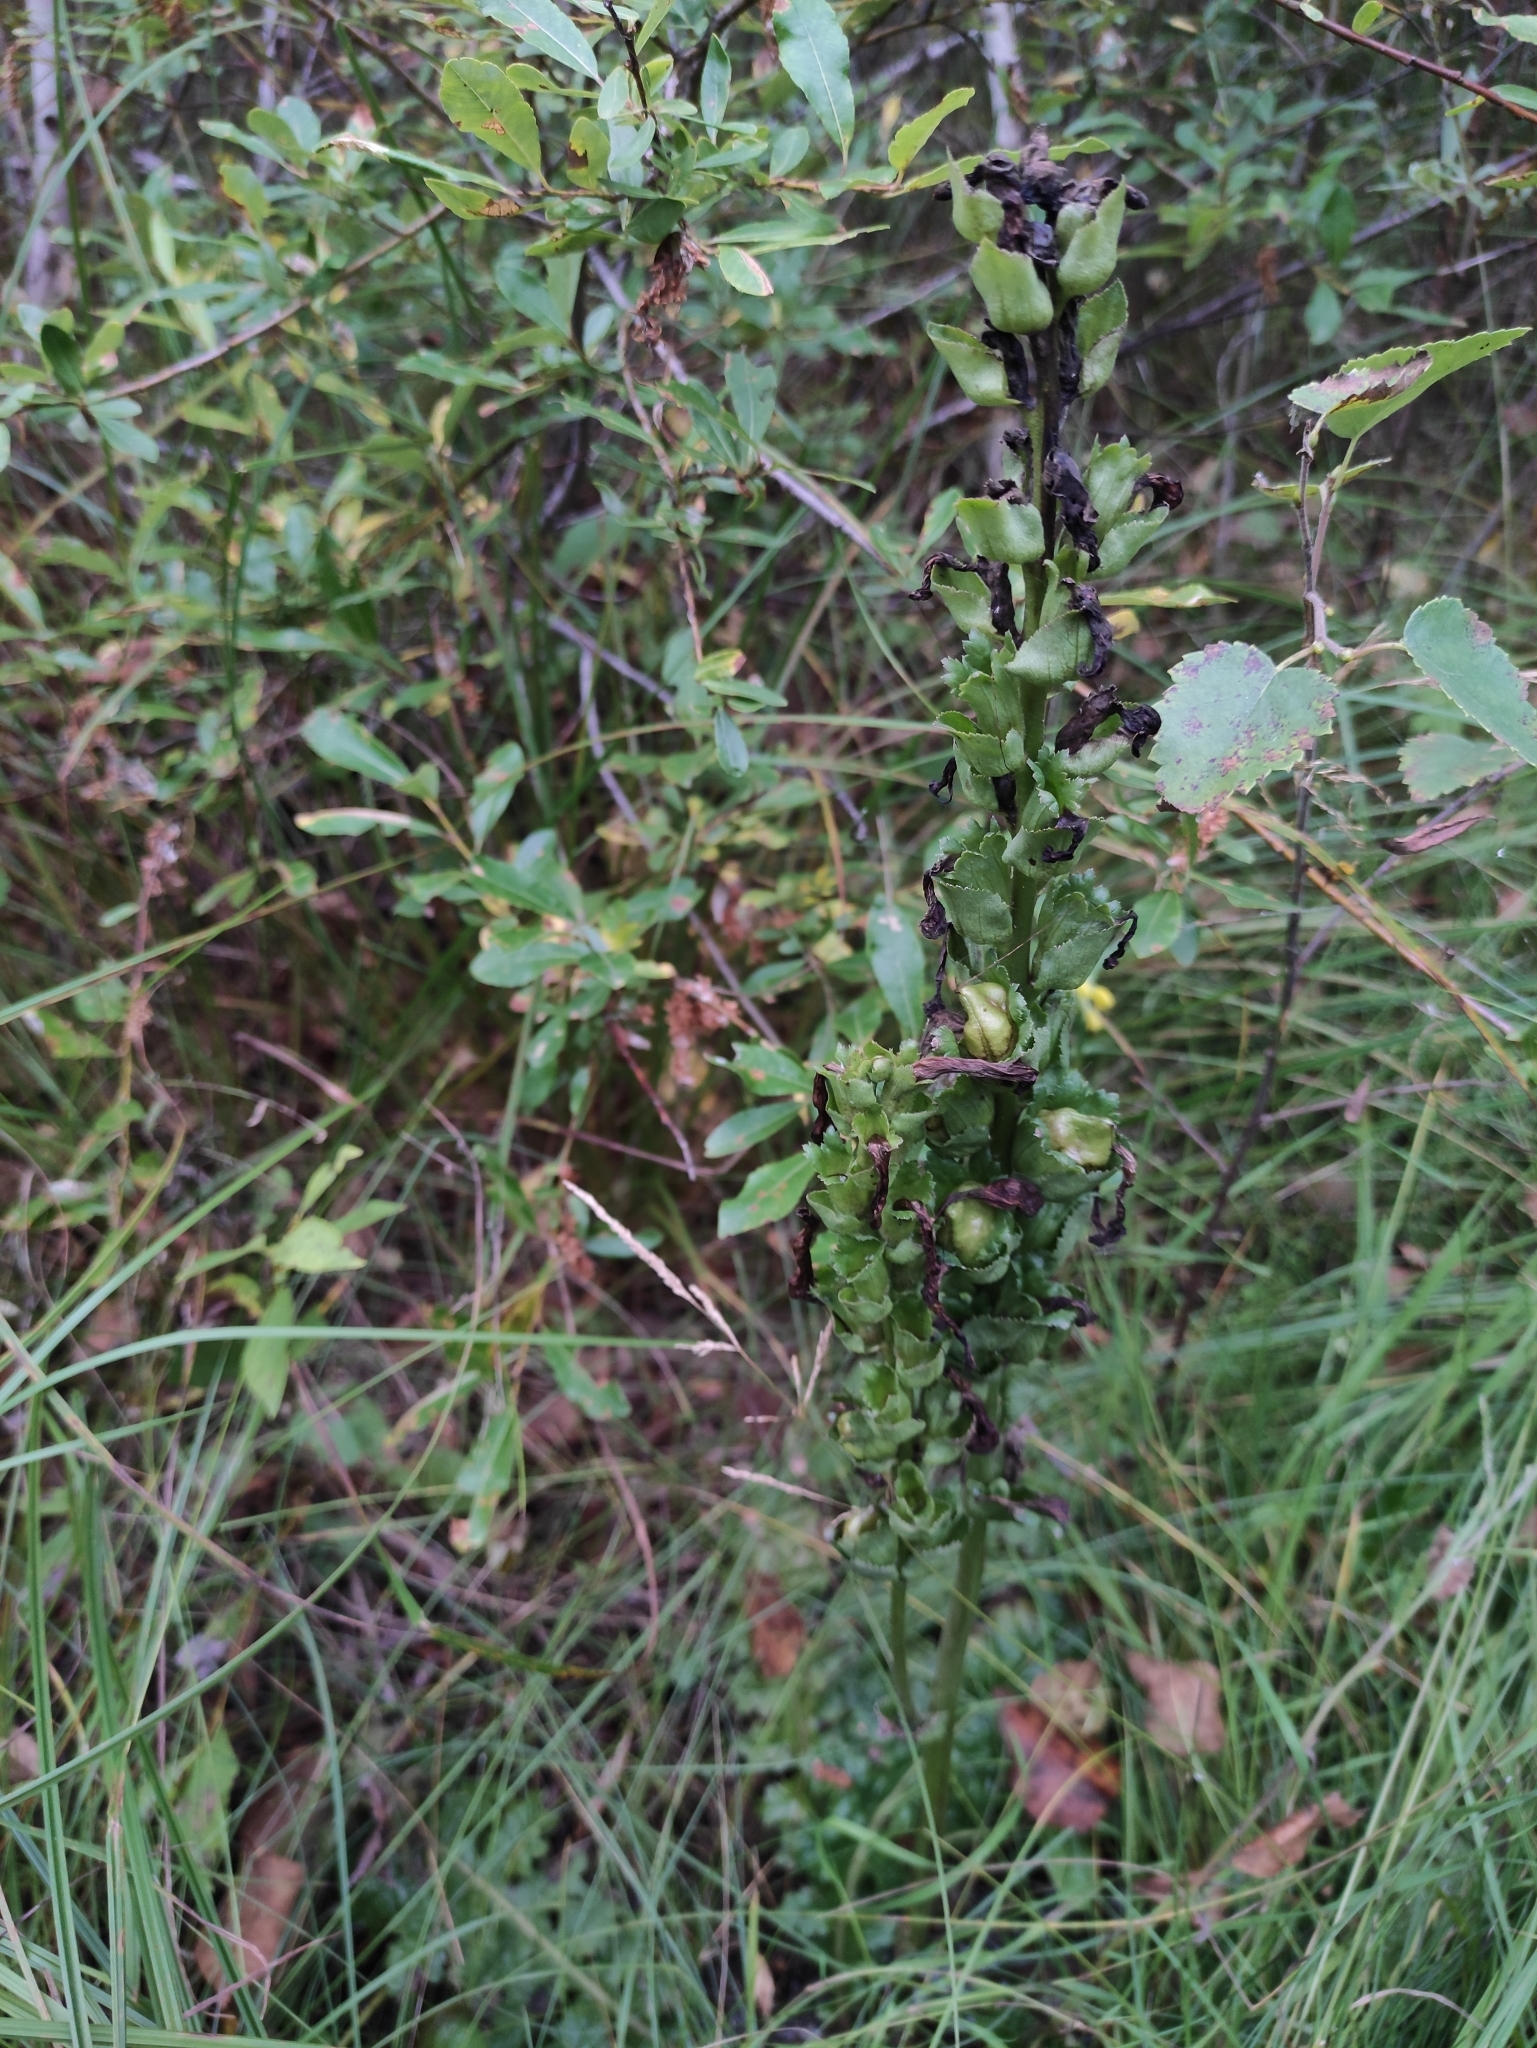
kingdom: Plantae
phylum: Tracheophyta
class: Magnoliopsida
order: Lamiales
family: Orobanchaceae
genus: Pedicularis
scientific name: Pedicularis sceptrum-carolinum
